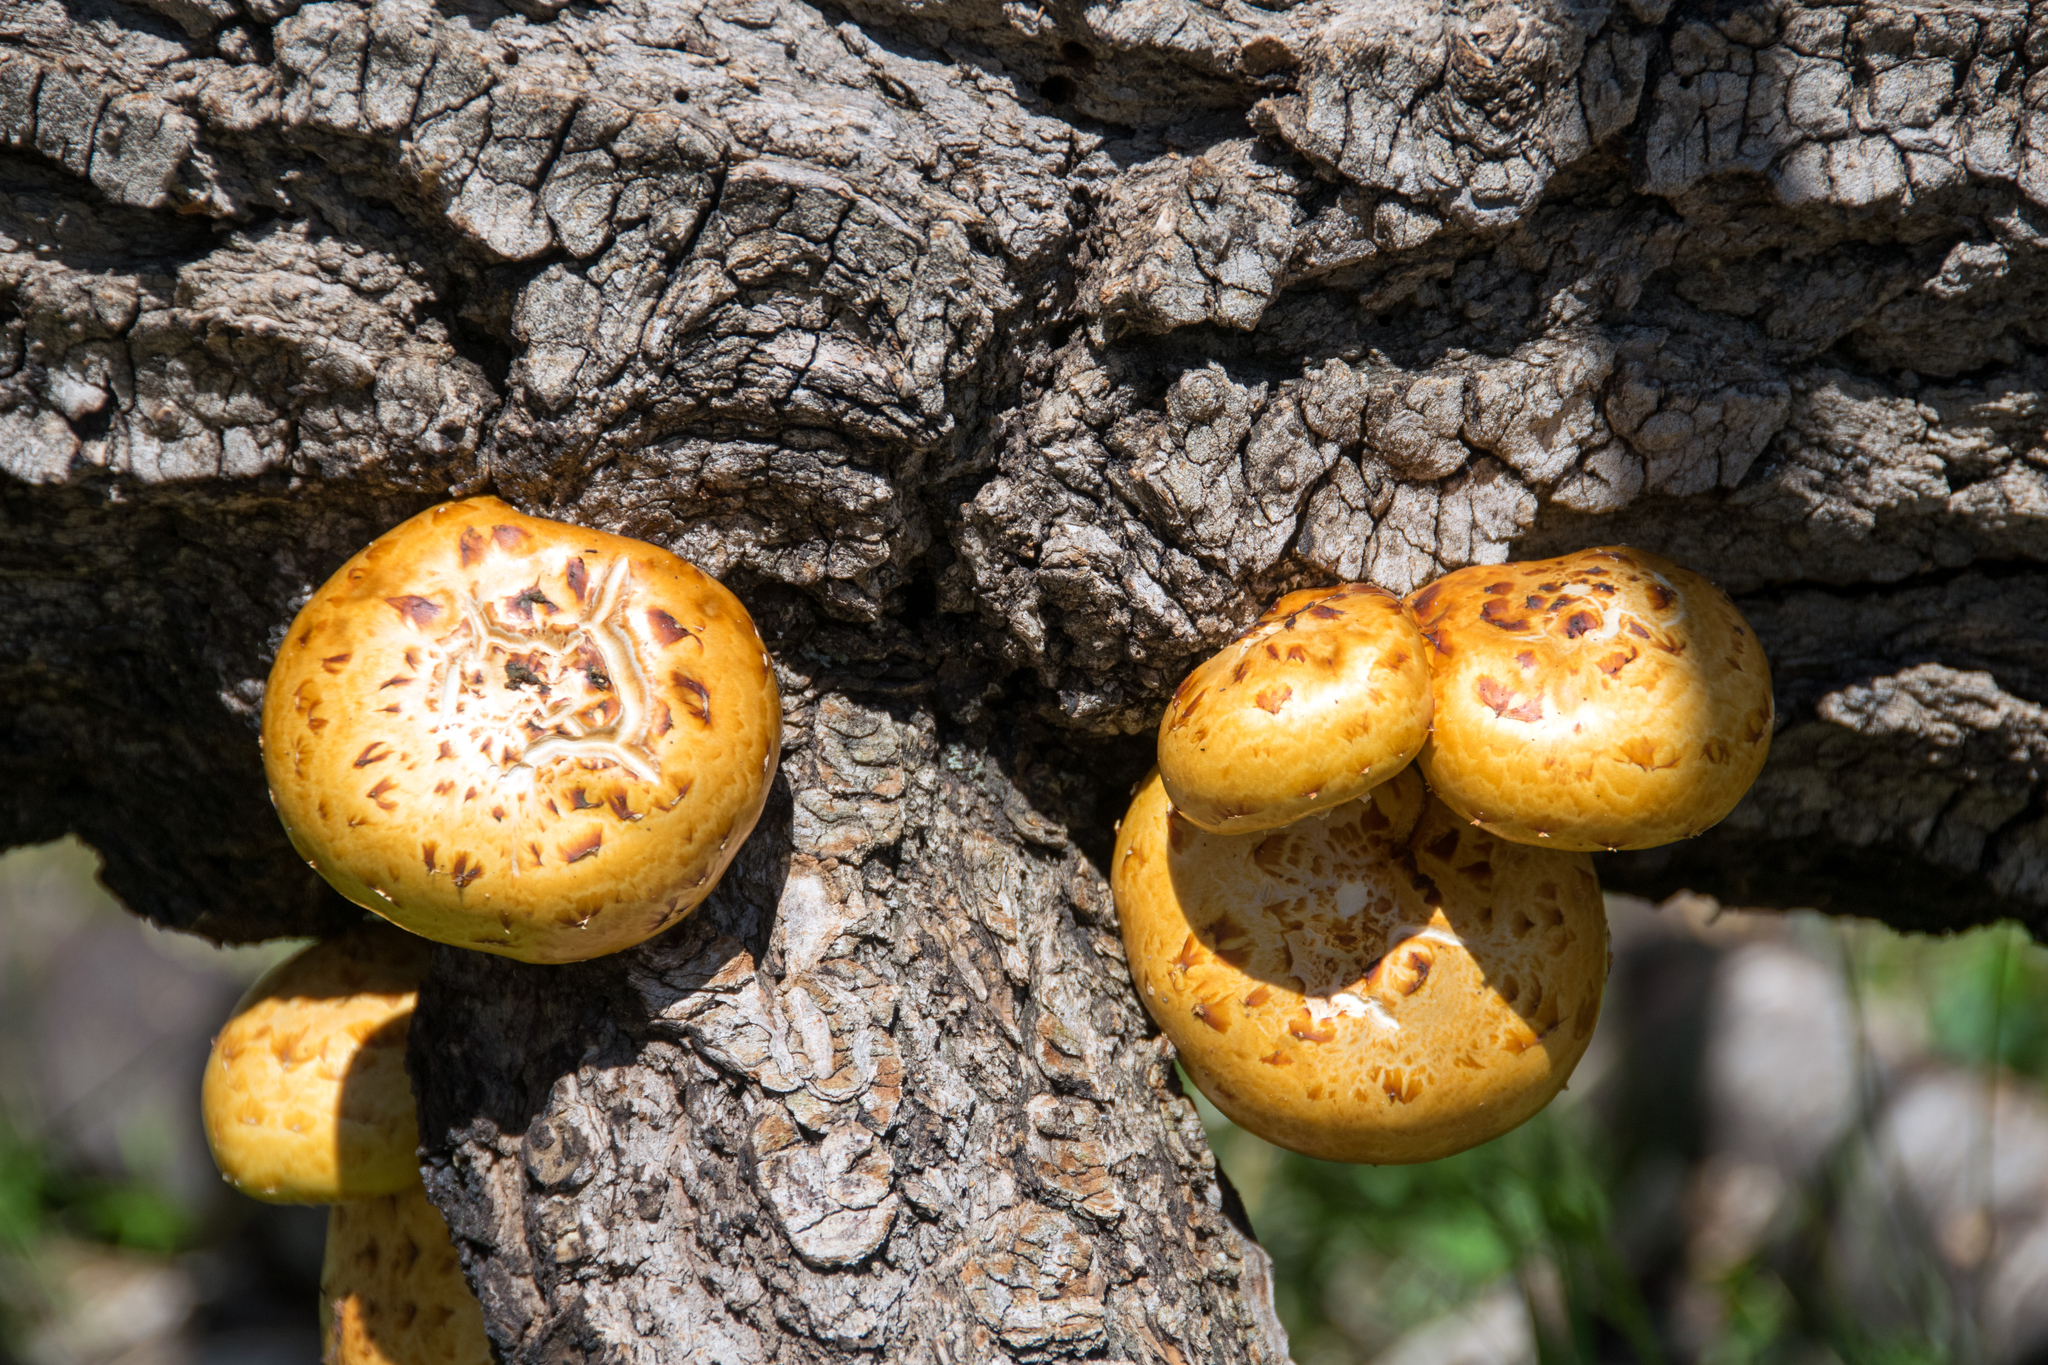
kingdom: Fungi
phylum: Basidiomycota
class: Agaricomycetes
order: Agaricales
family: Strophariaceae
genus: Pholiota
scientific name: Pholiota aurivella
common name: Golden scalycap
